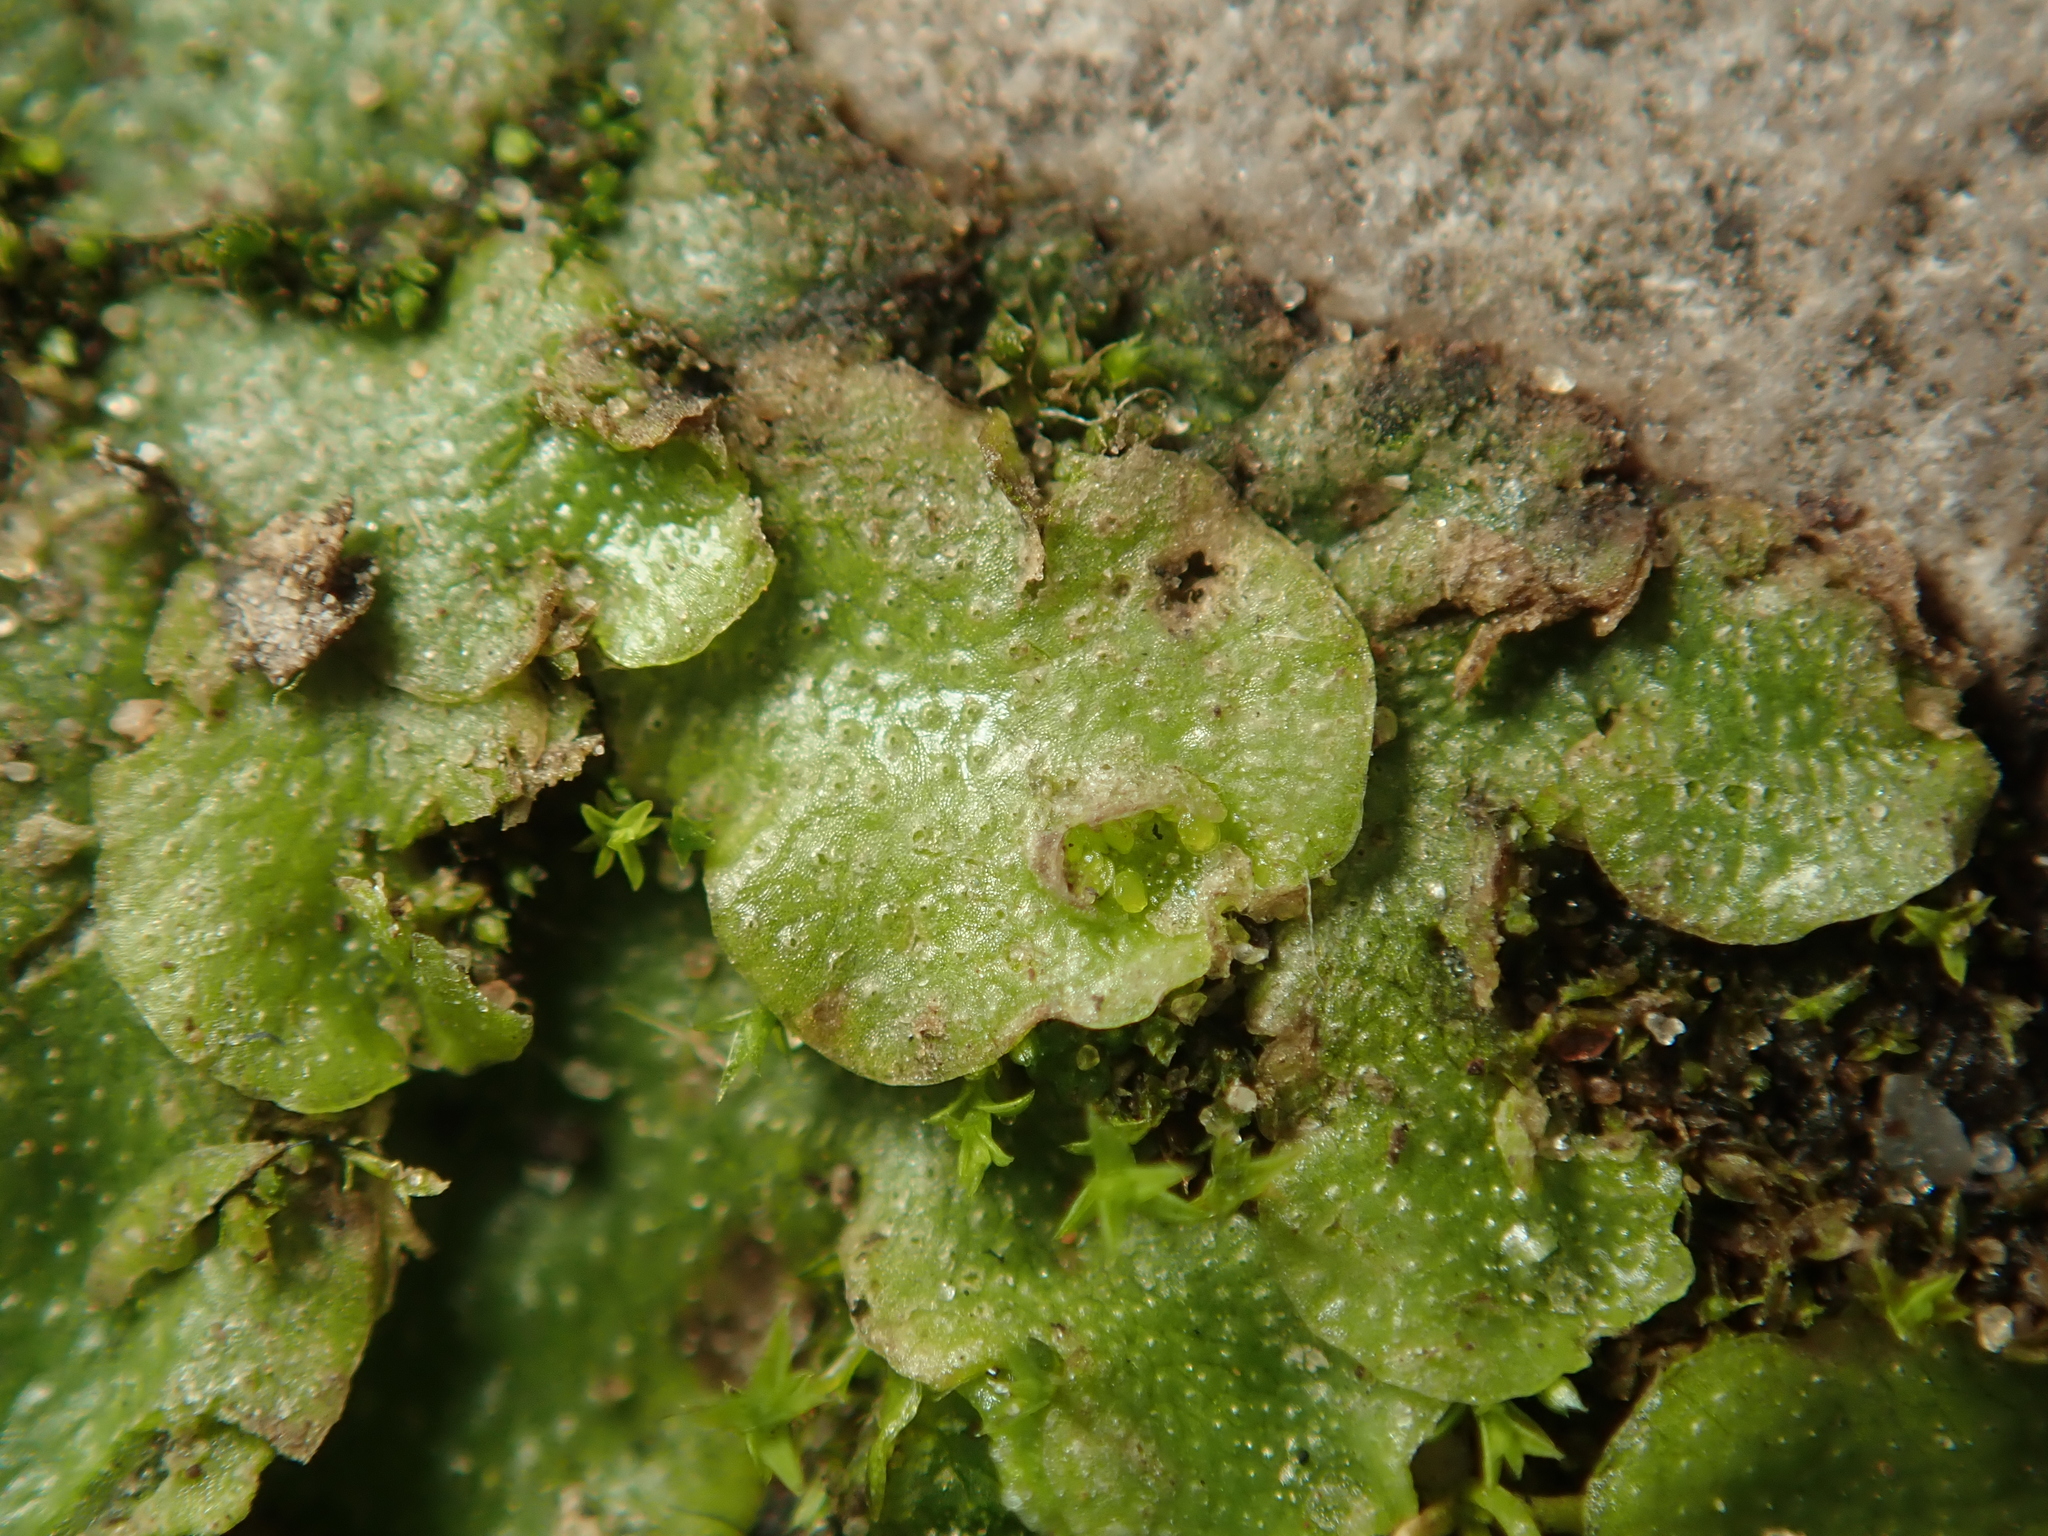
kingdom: Plantae
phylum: Marchantiophyta
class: Marchantiopsida
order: Lunulariales
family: Lunulariaceae
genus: Lunularia
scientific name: Lunularia cruciata
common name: Crescent-cup liverwort
